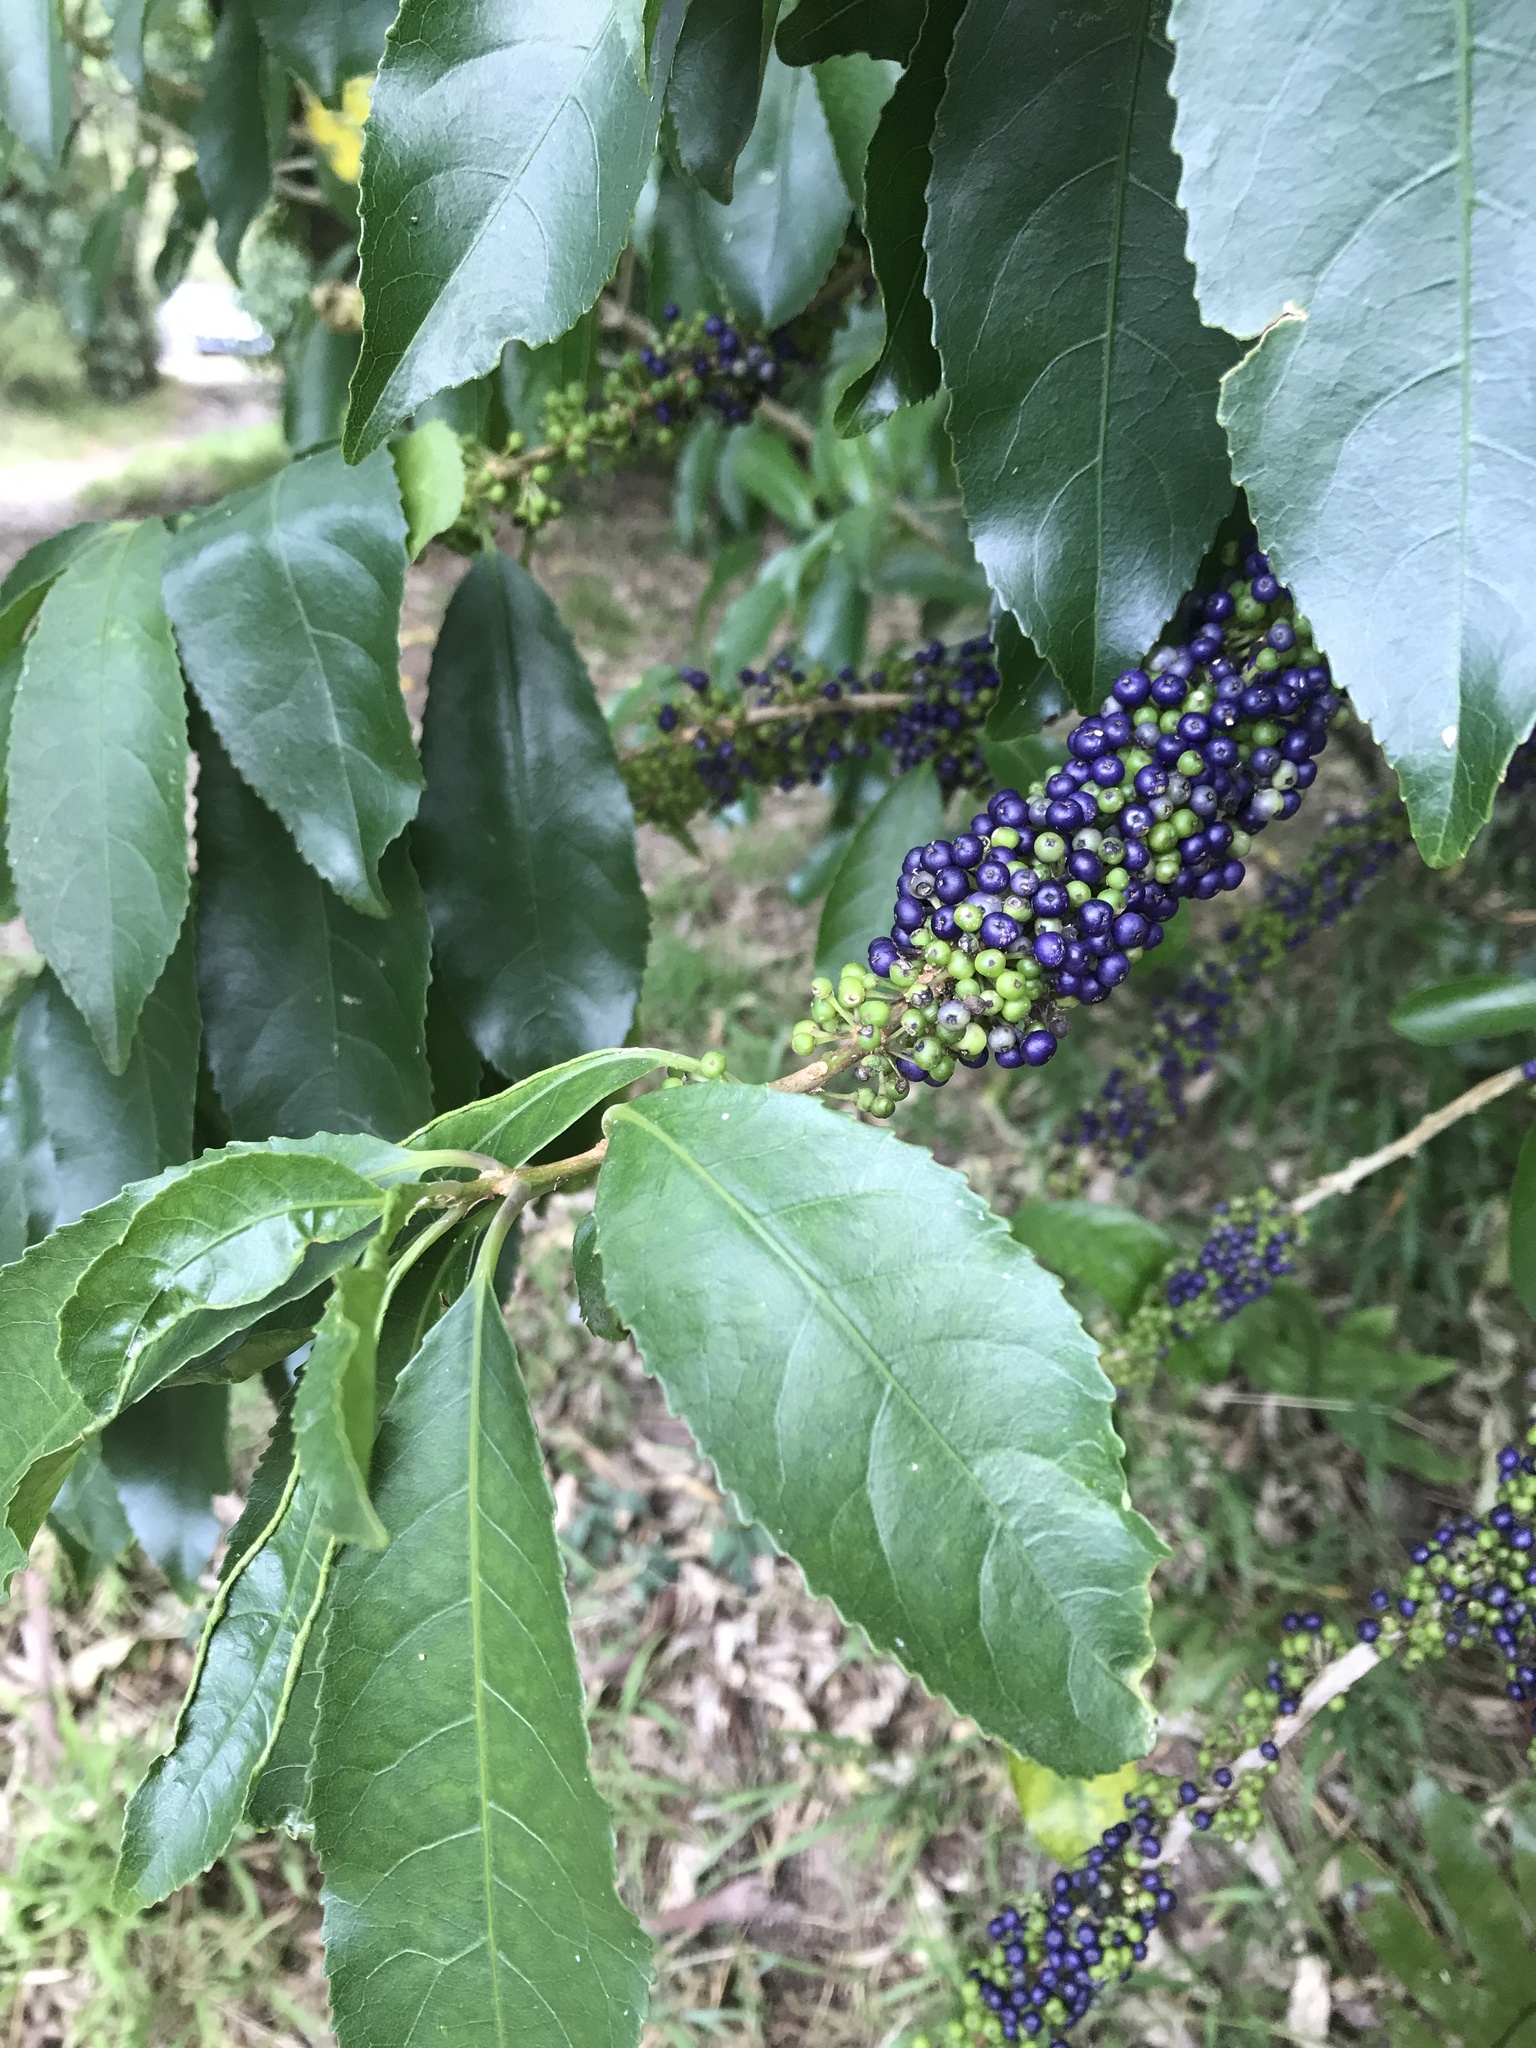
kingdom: Plantae
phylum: Tracheophyta
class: Magnoliopsida
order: Malpighiales
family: Violaceae
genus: Melicytus
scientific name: Melicytus ramiflorus
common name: Mahoe
